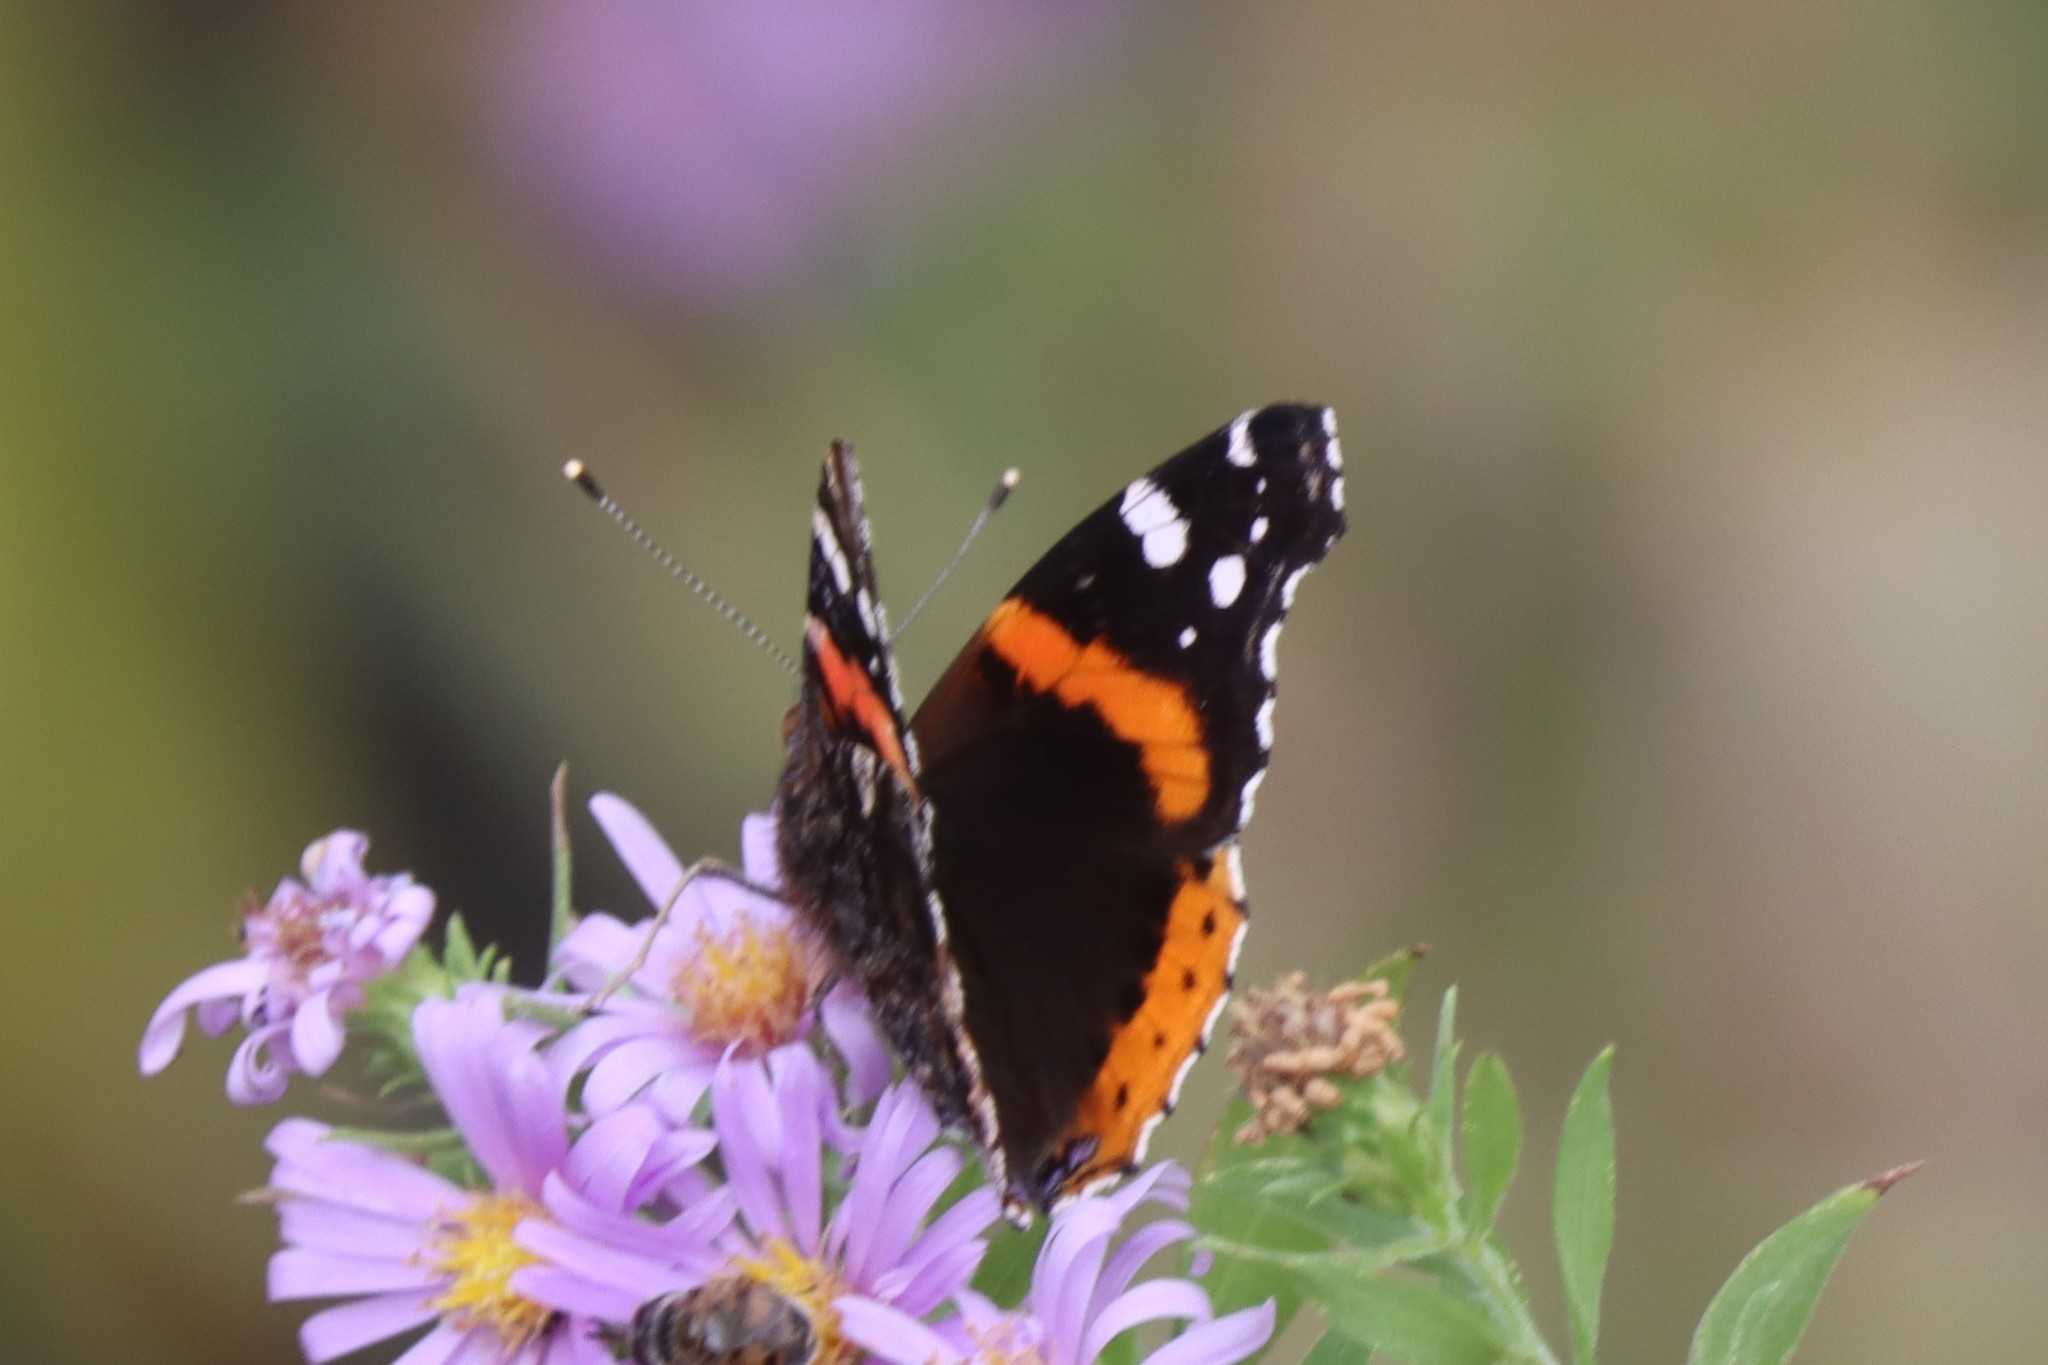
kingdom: Animalia
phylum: Arthropoda
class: Insecta
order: Lepidoptera
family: Nymphalidae
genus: Vanessa
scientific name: Vanessa atalanta
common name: Red admiral
